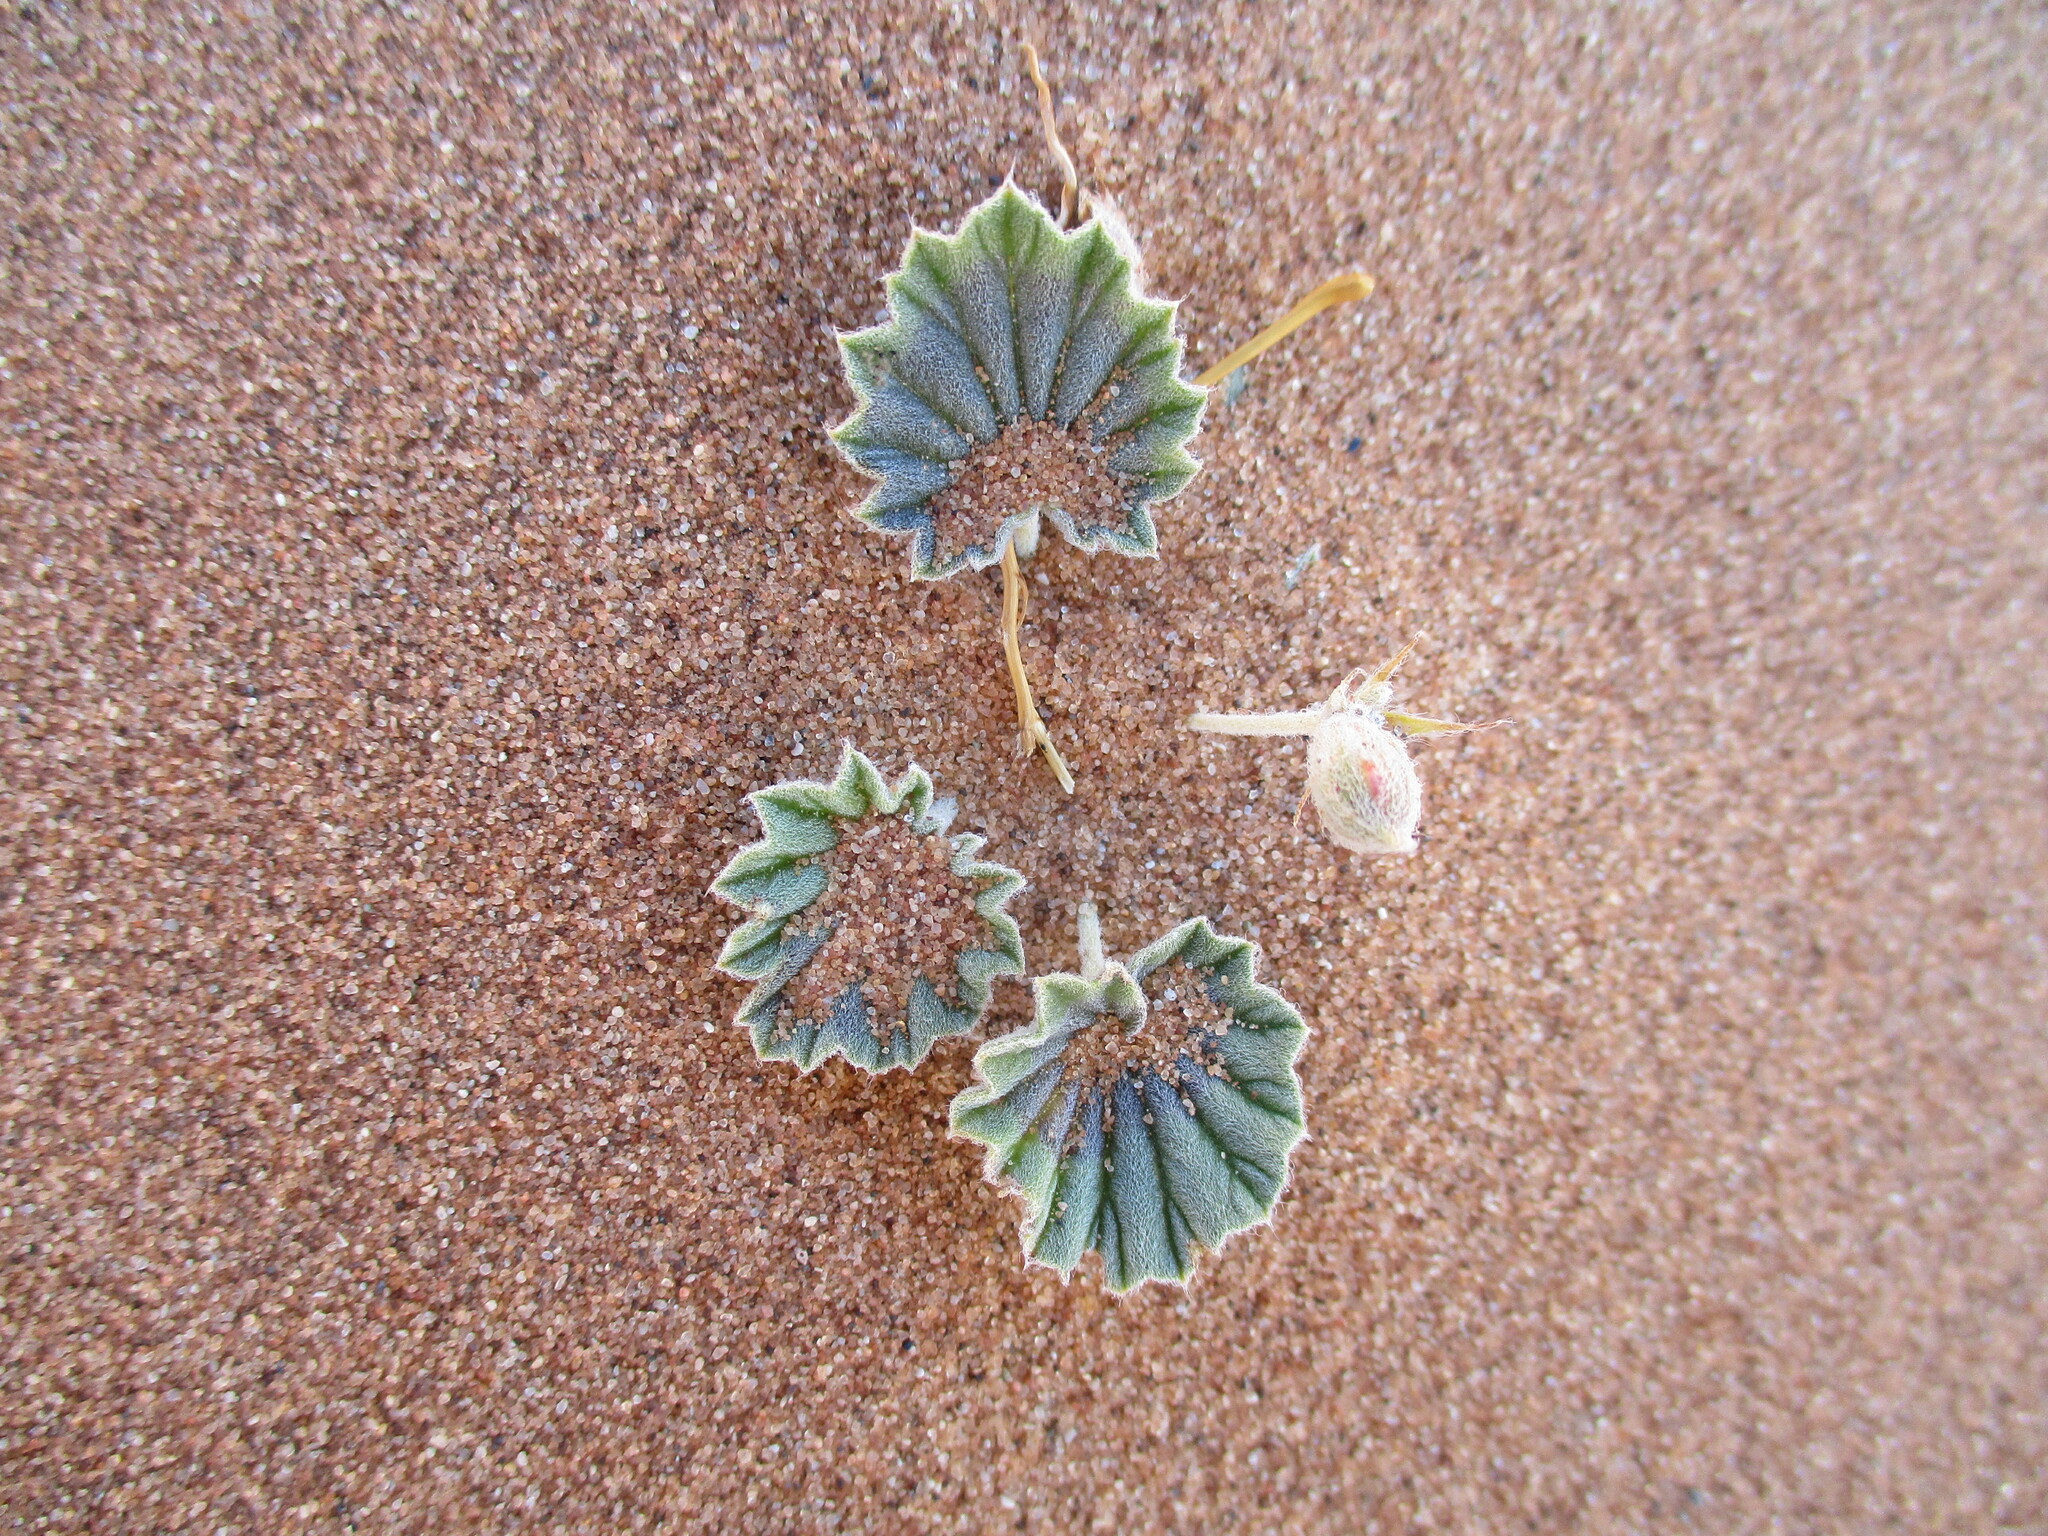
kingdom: Plantae
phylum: Tracheophyta
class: Magnoliopsida
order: Geraniales
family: Geraniaceae
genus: Monsonia
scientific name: Monsonia ignorata
